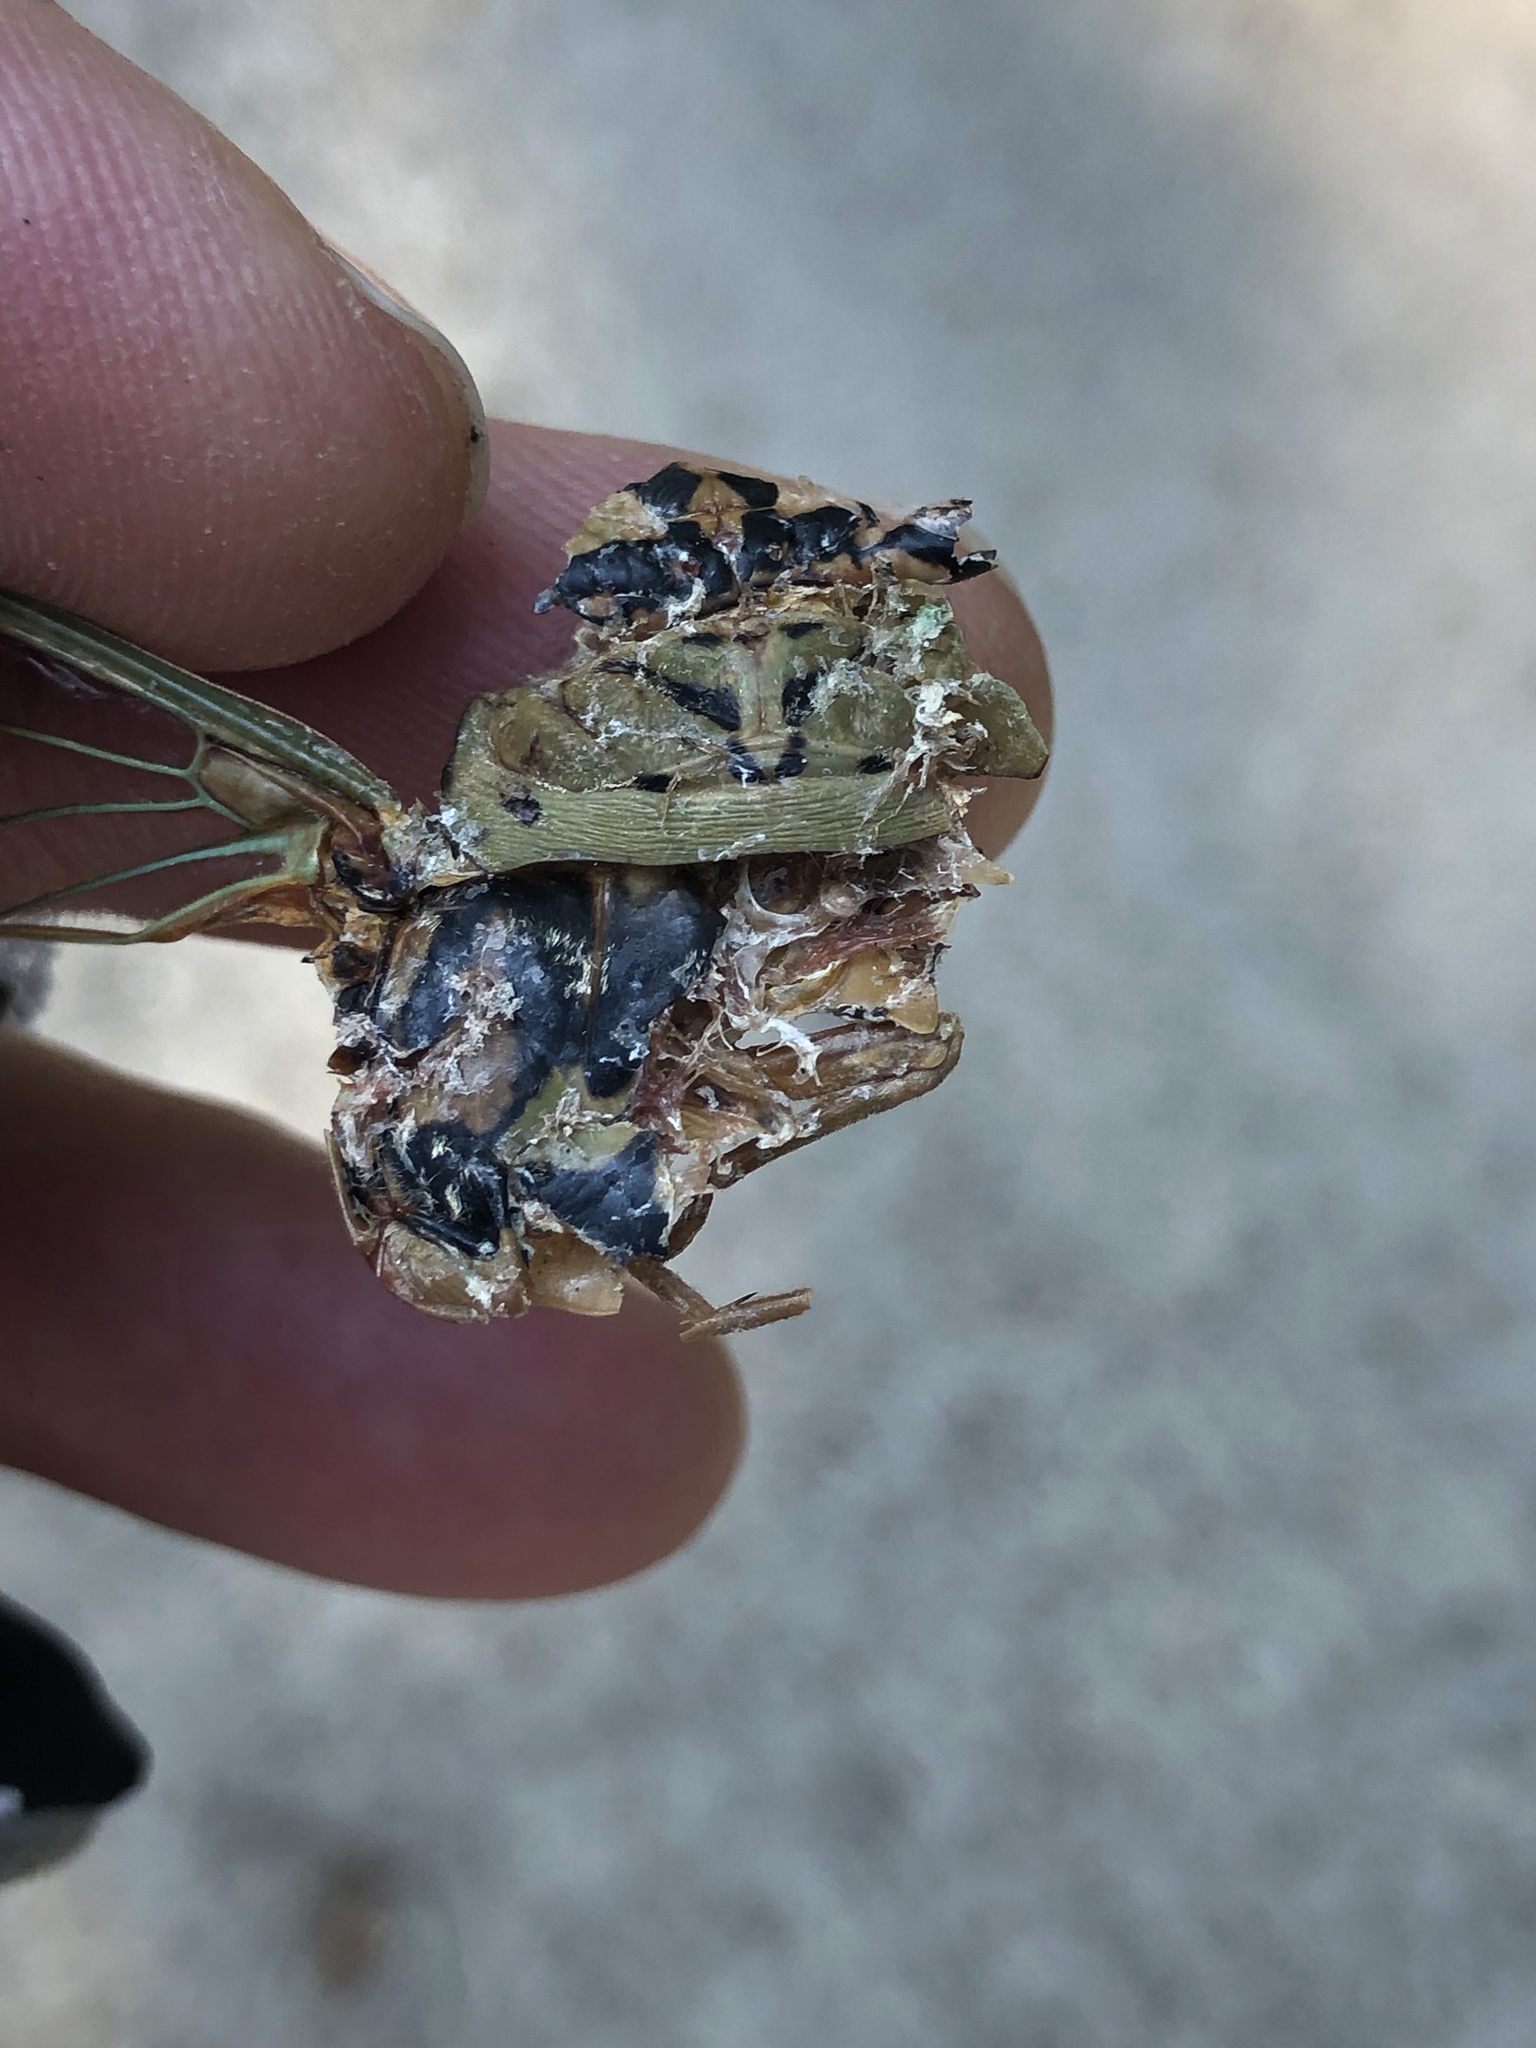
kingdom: Animalia
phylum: Arthropoda
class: Insecta
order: Hemiptera
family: Cicadidae
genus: Megatibicen
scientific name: Megatibicen resh
